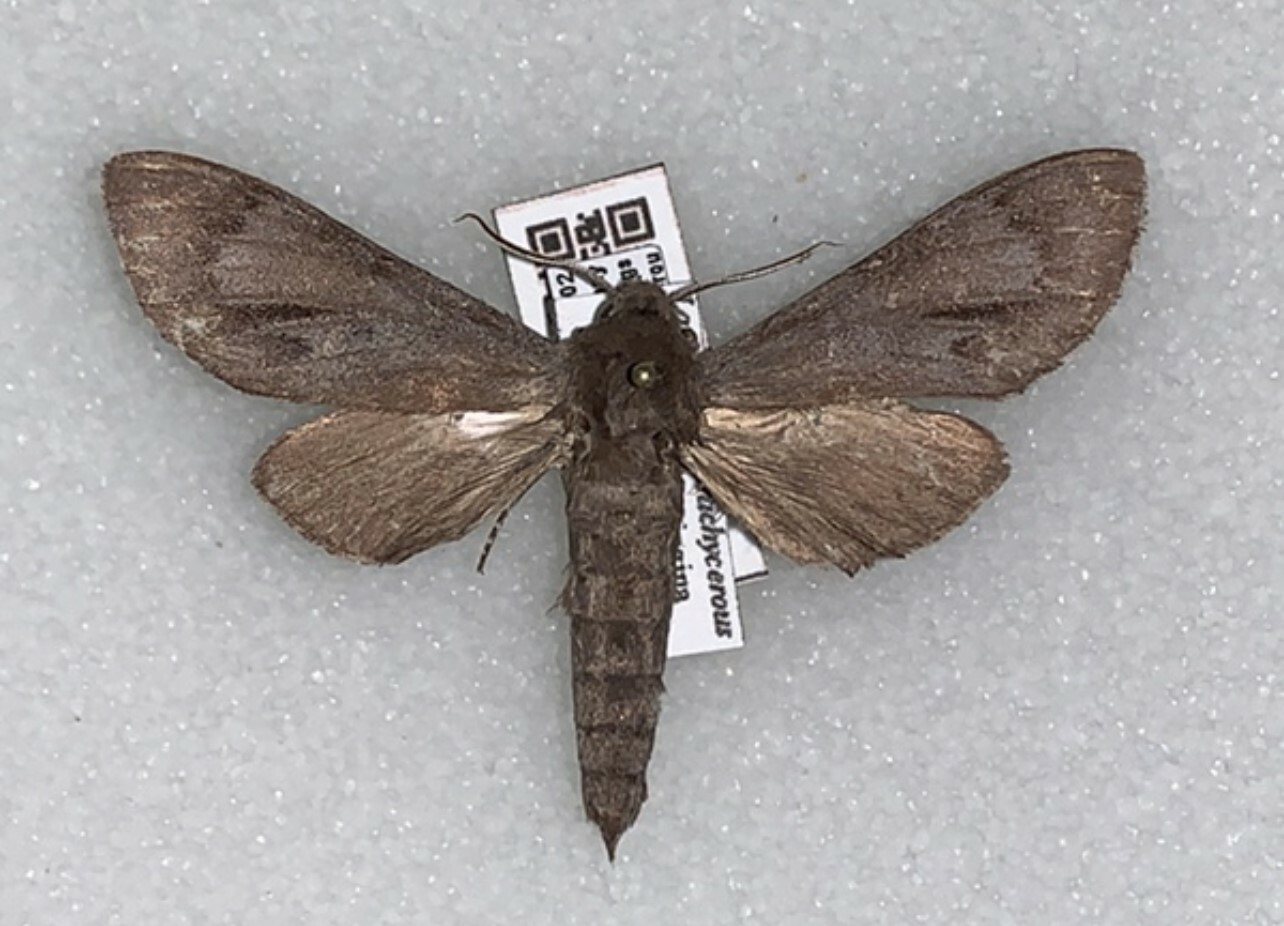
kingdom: Animalia
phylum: Arthropoda
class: Insecta
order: Lepidoptera
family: Sphingidae
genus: Lapara
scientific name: Lapara phaeobrachycerous
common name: Gulf pine sphinx
